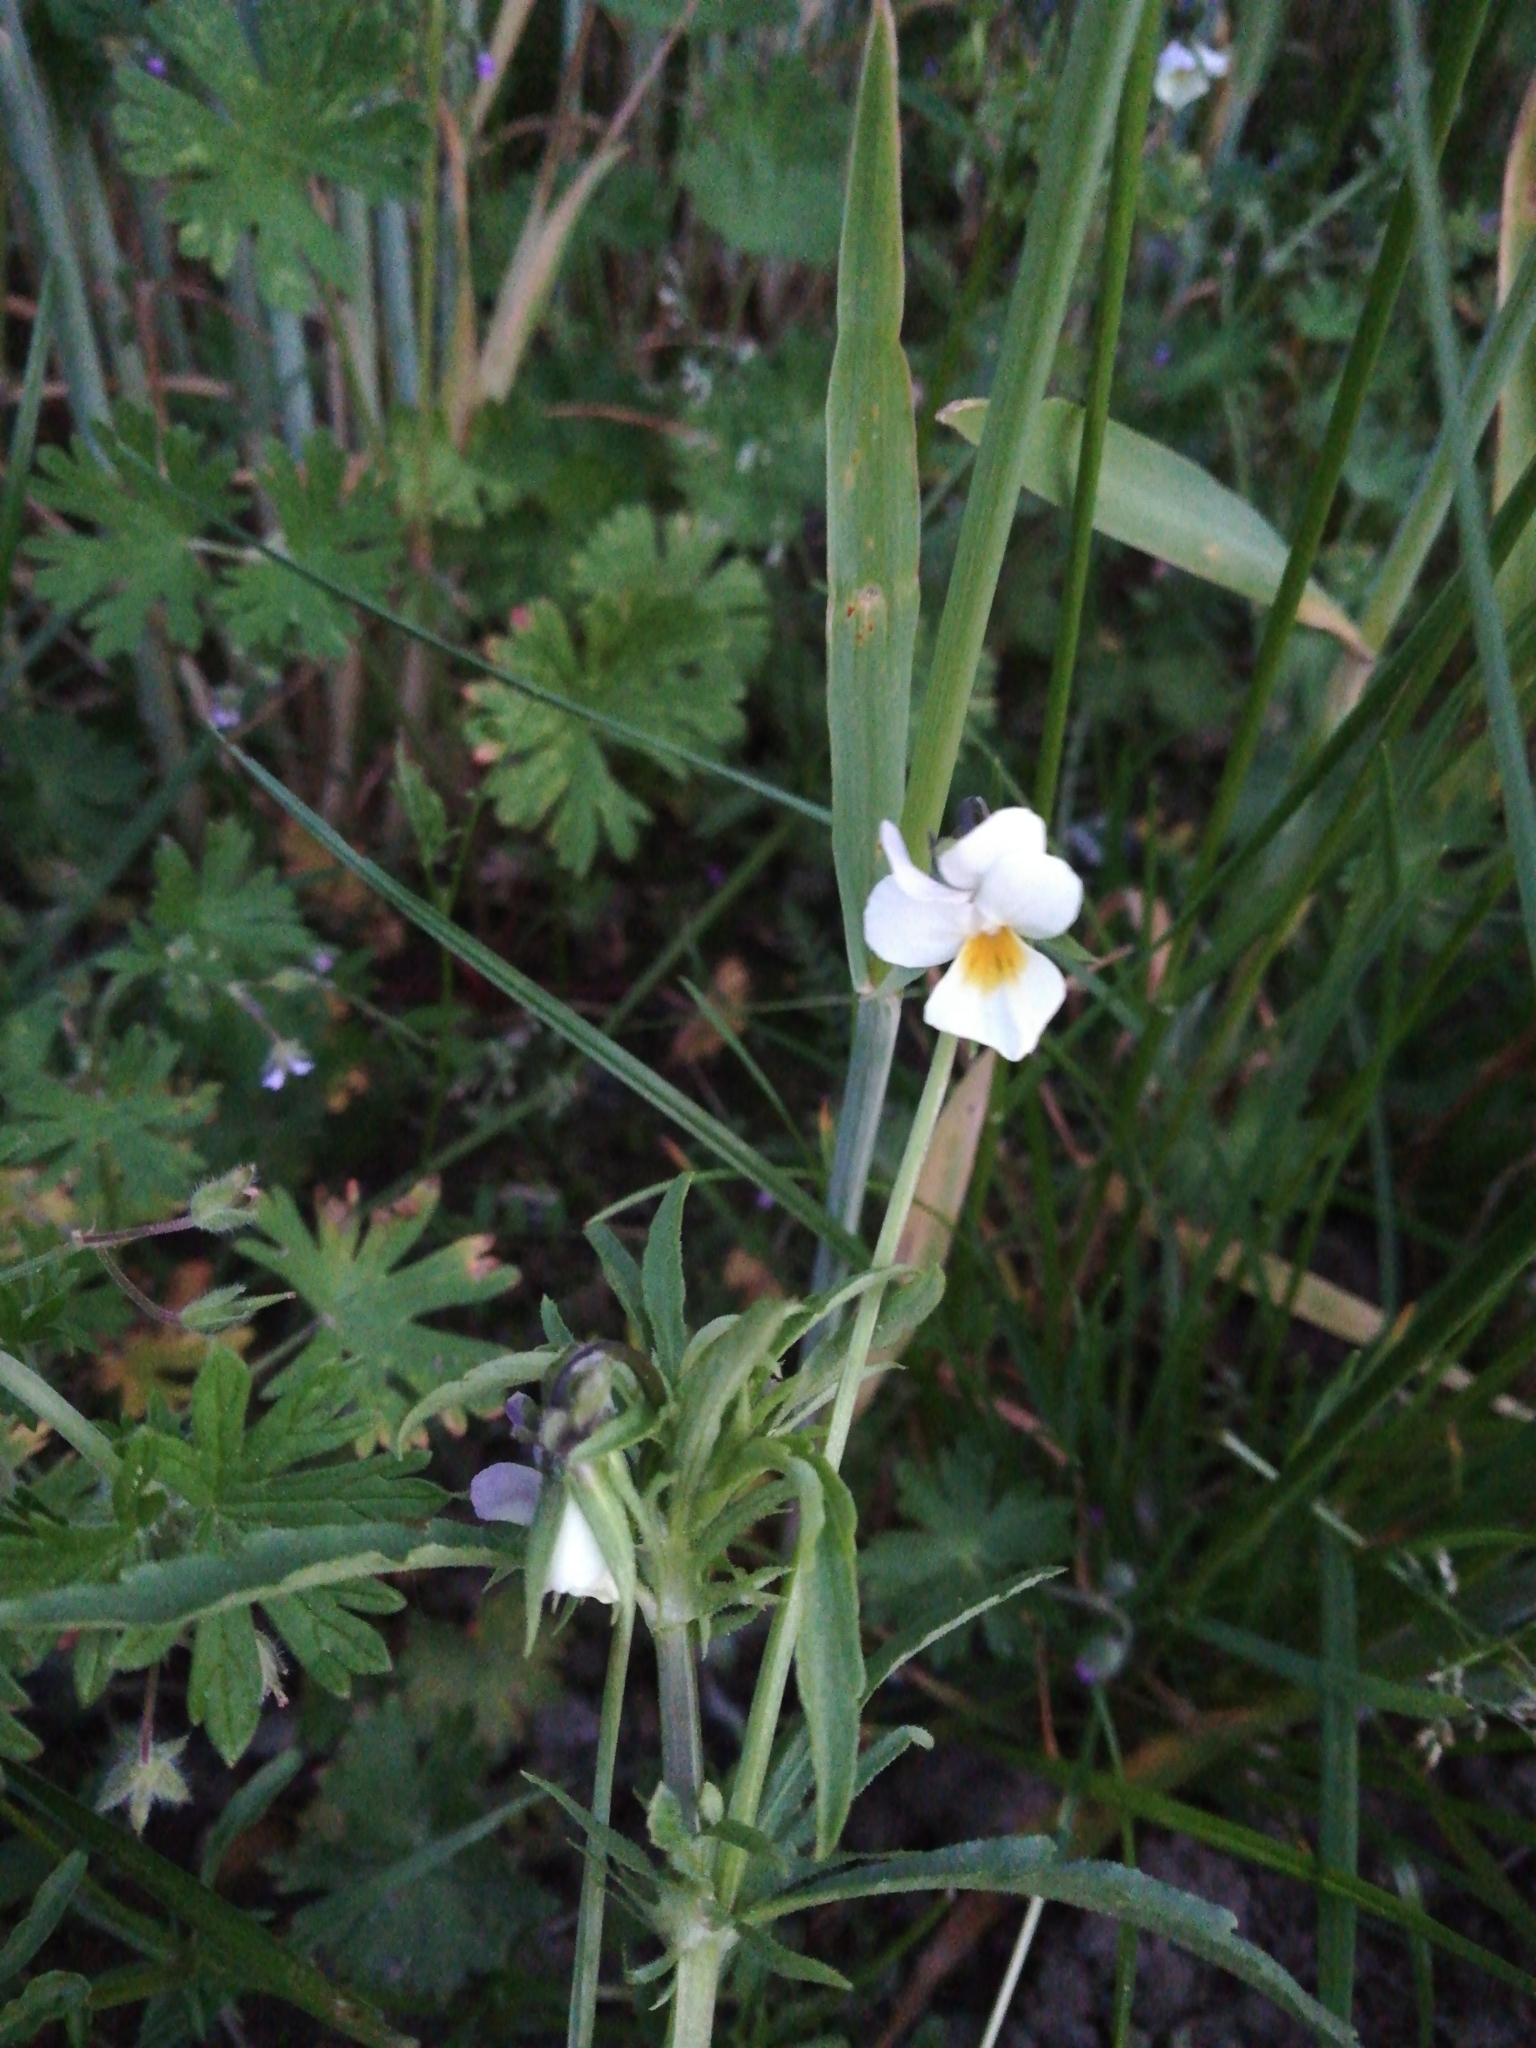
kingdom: Plantae
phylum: Tracheophyta
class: Magnoliopsida
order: Malpighiales
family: Violaceae
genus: Viola
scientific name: Viola arvensis
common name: Field pansy
